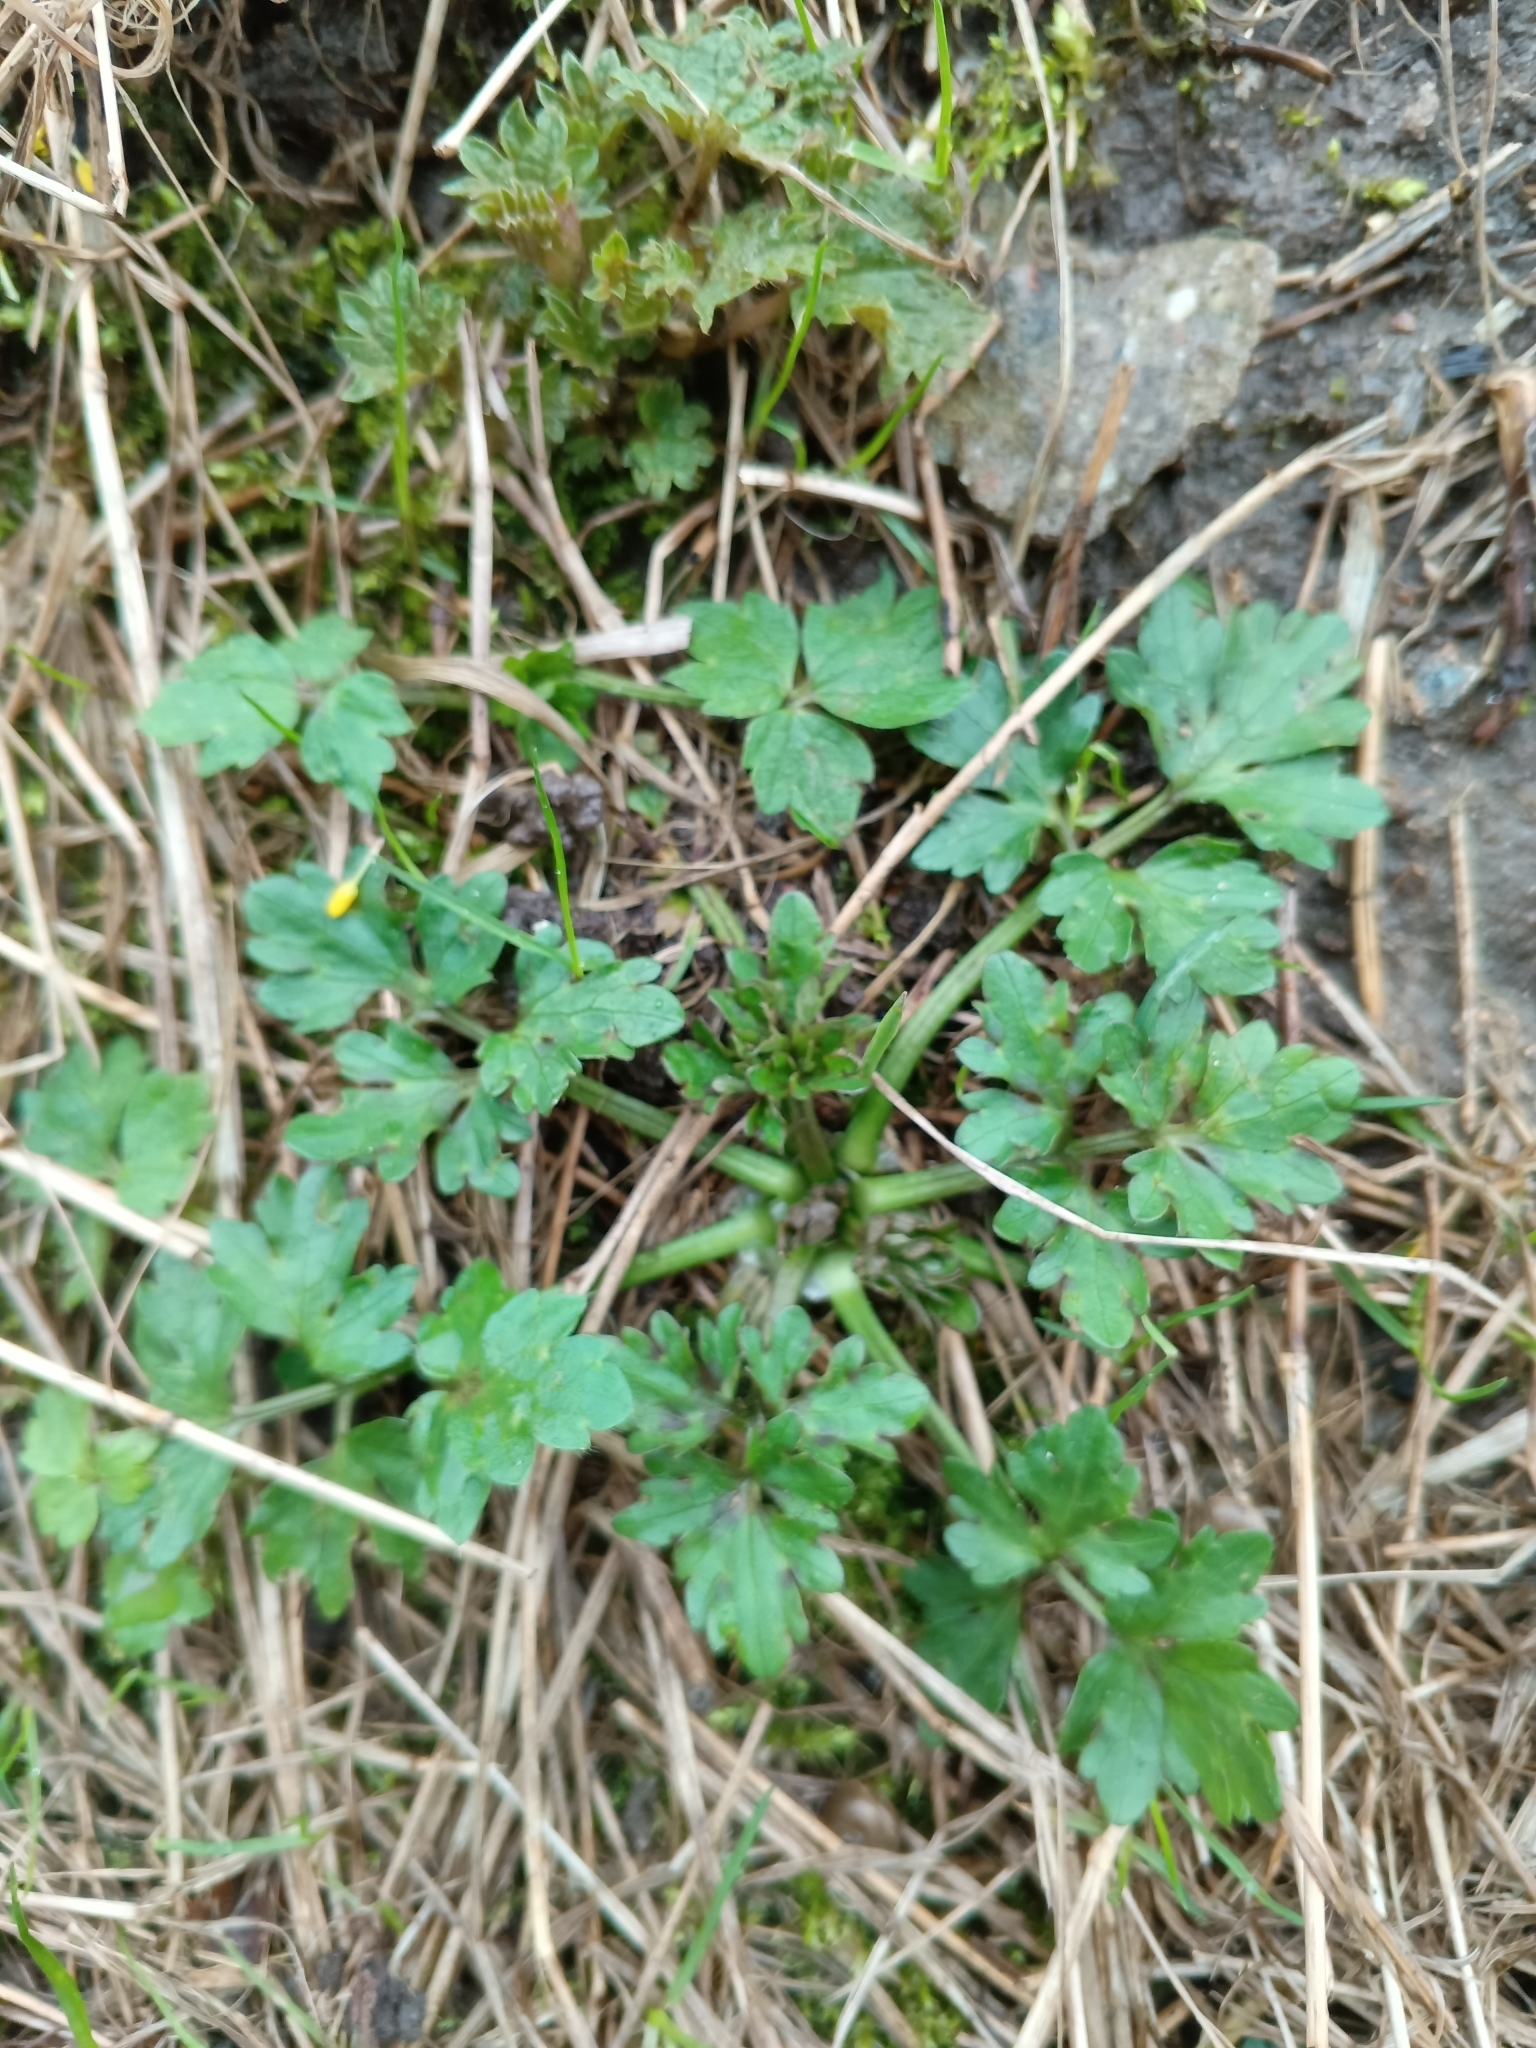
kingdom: Plantae
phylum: Tracheophyta
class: Magnoliopsida
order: Ranunculales
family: Ranunculaceae
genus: Ranunculus
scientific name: Ranunculus repens
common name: Creeping buttercup
